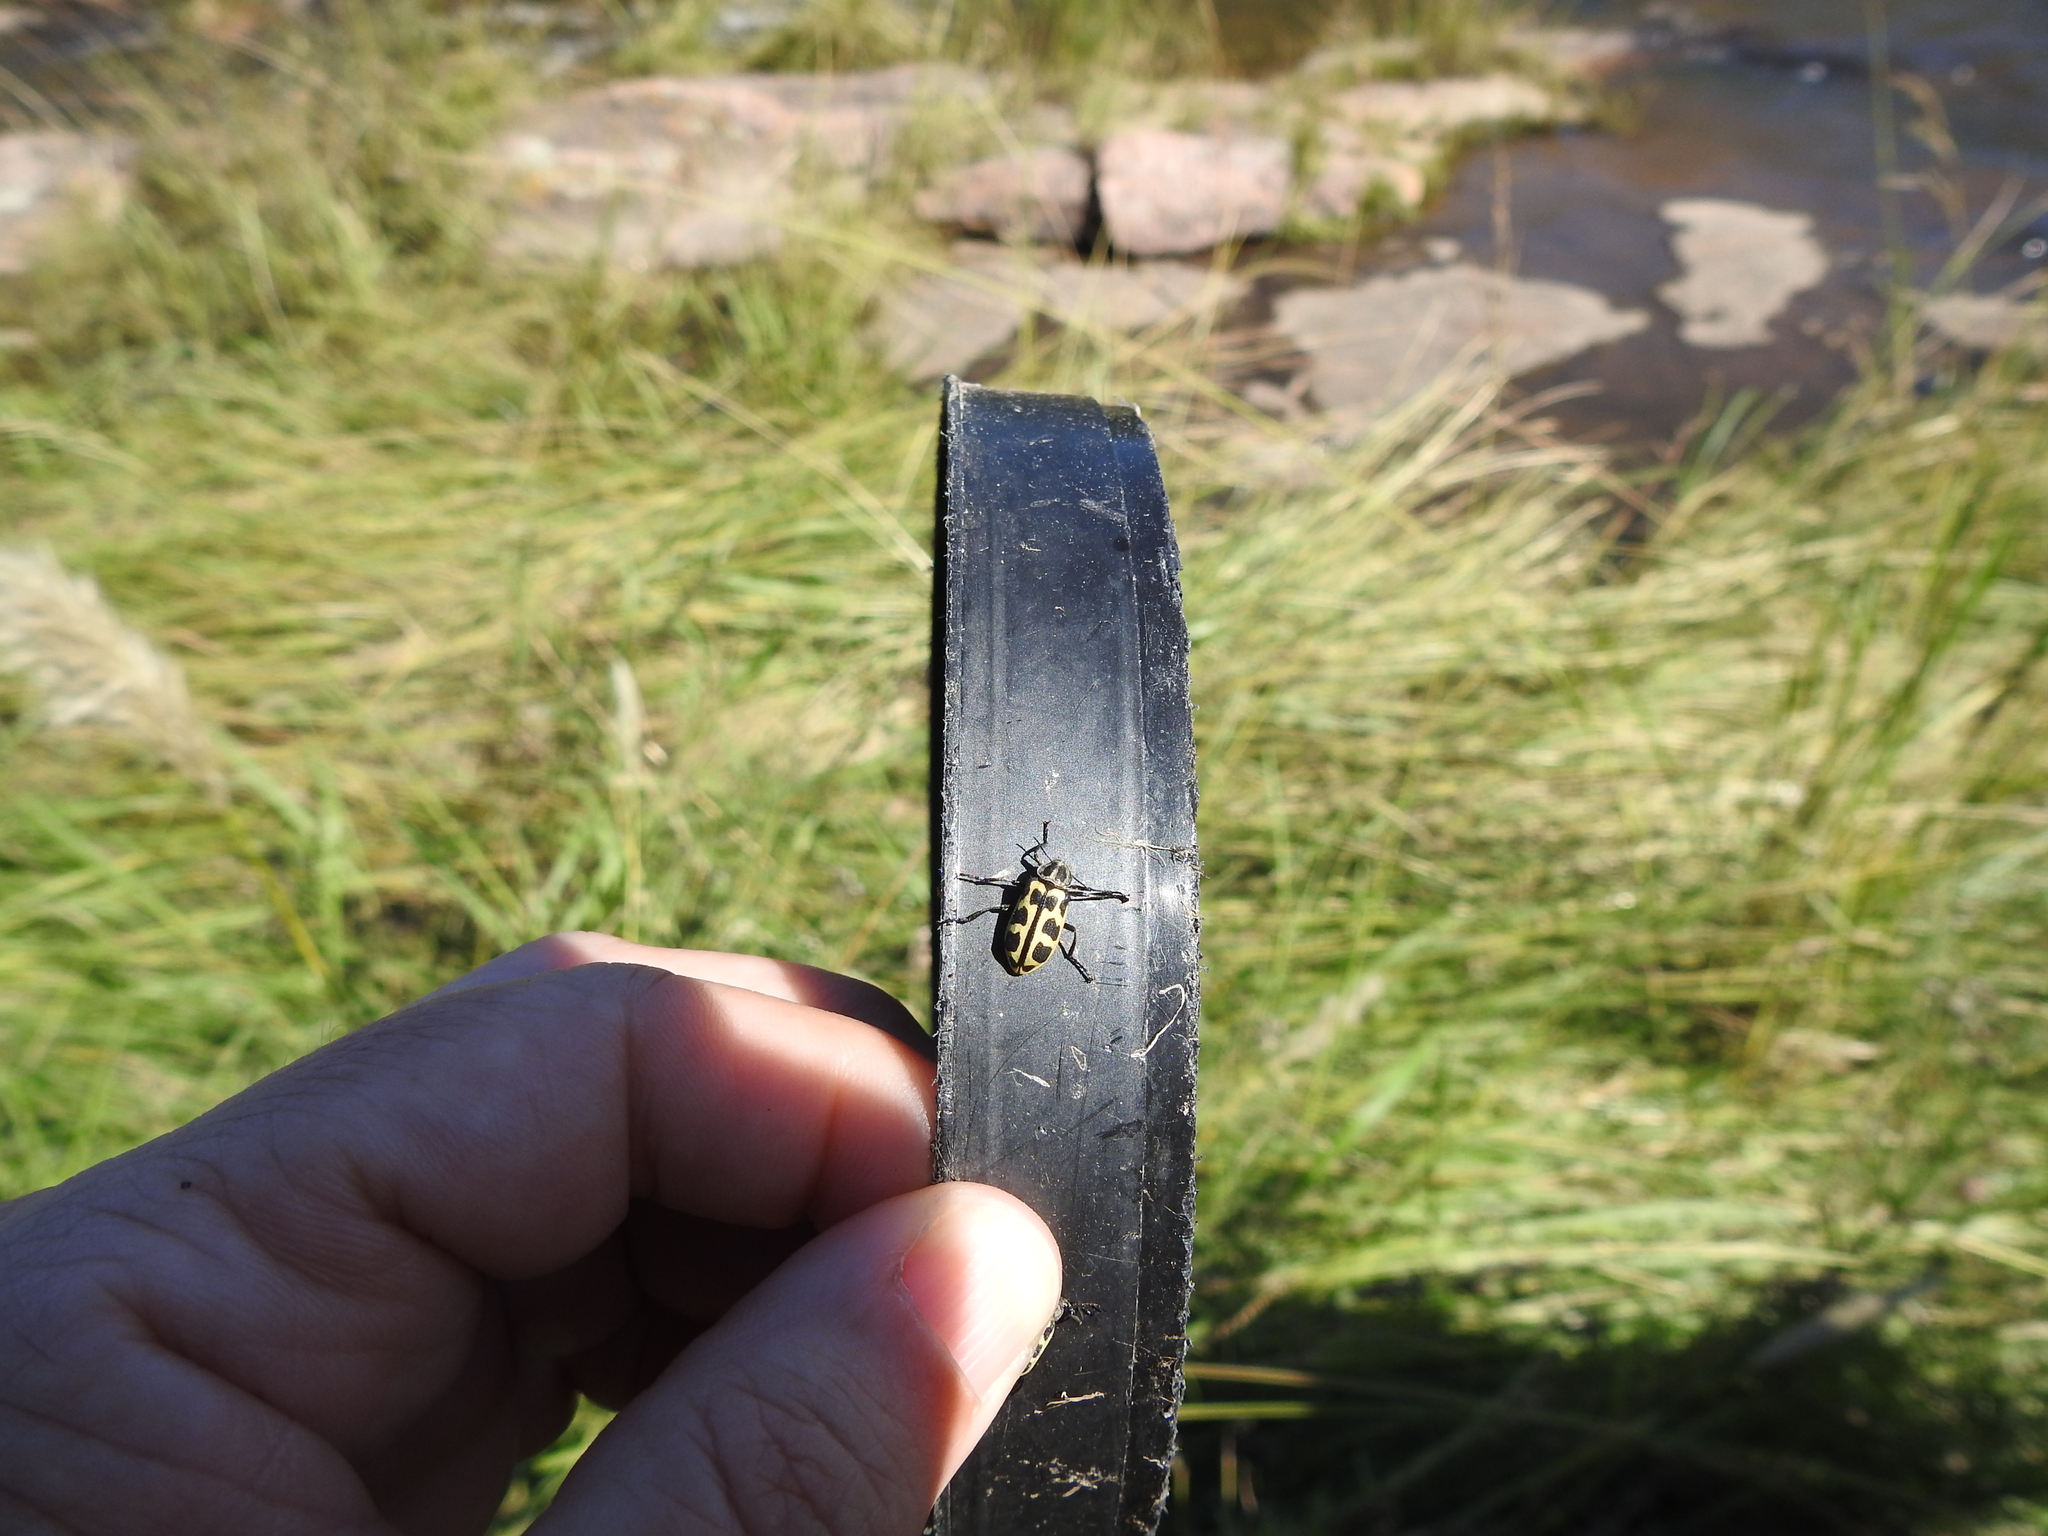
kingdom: Animalia
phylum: Arthropoda
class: Insecta
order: Coleoptera
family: Melyridae
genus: Astylus
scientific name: Astylus atromaculatus
